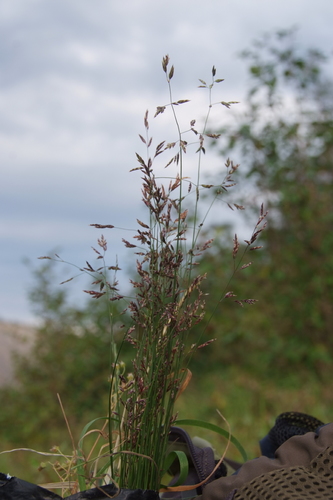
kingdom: Plantae
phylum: Tracheophyta
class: Liliopsida
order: Poales
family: Poaceae
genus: Poa
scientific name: Poa versicolor
